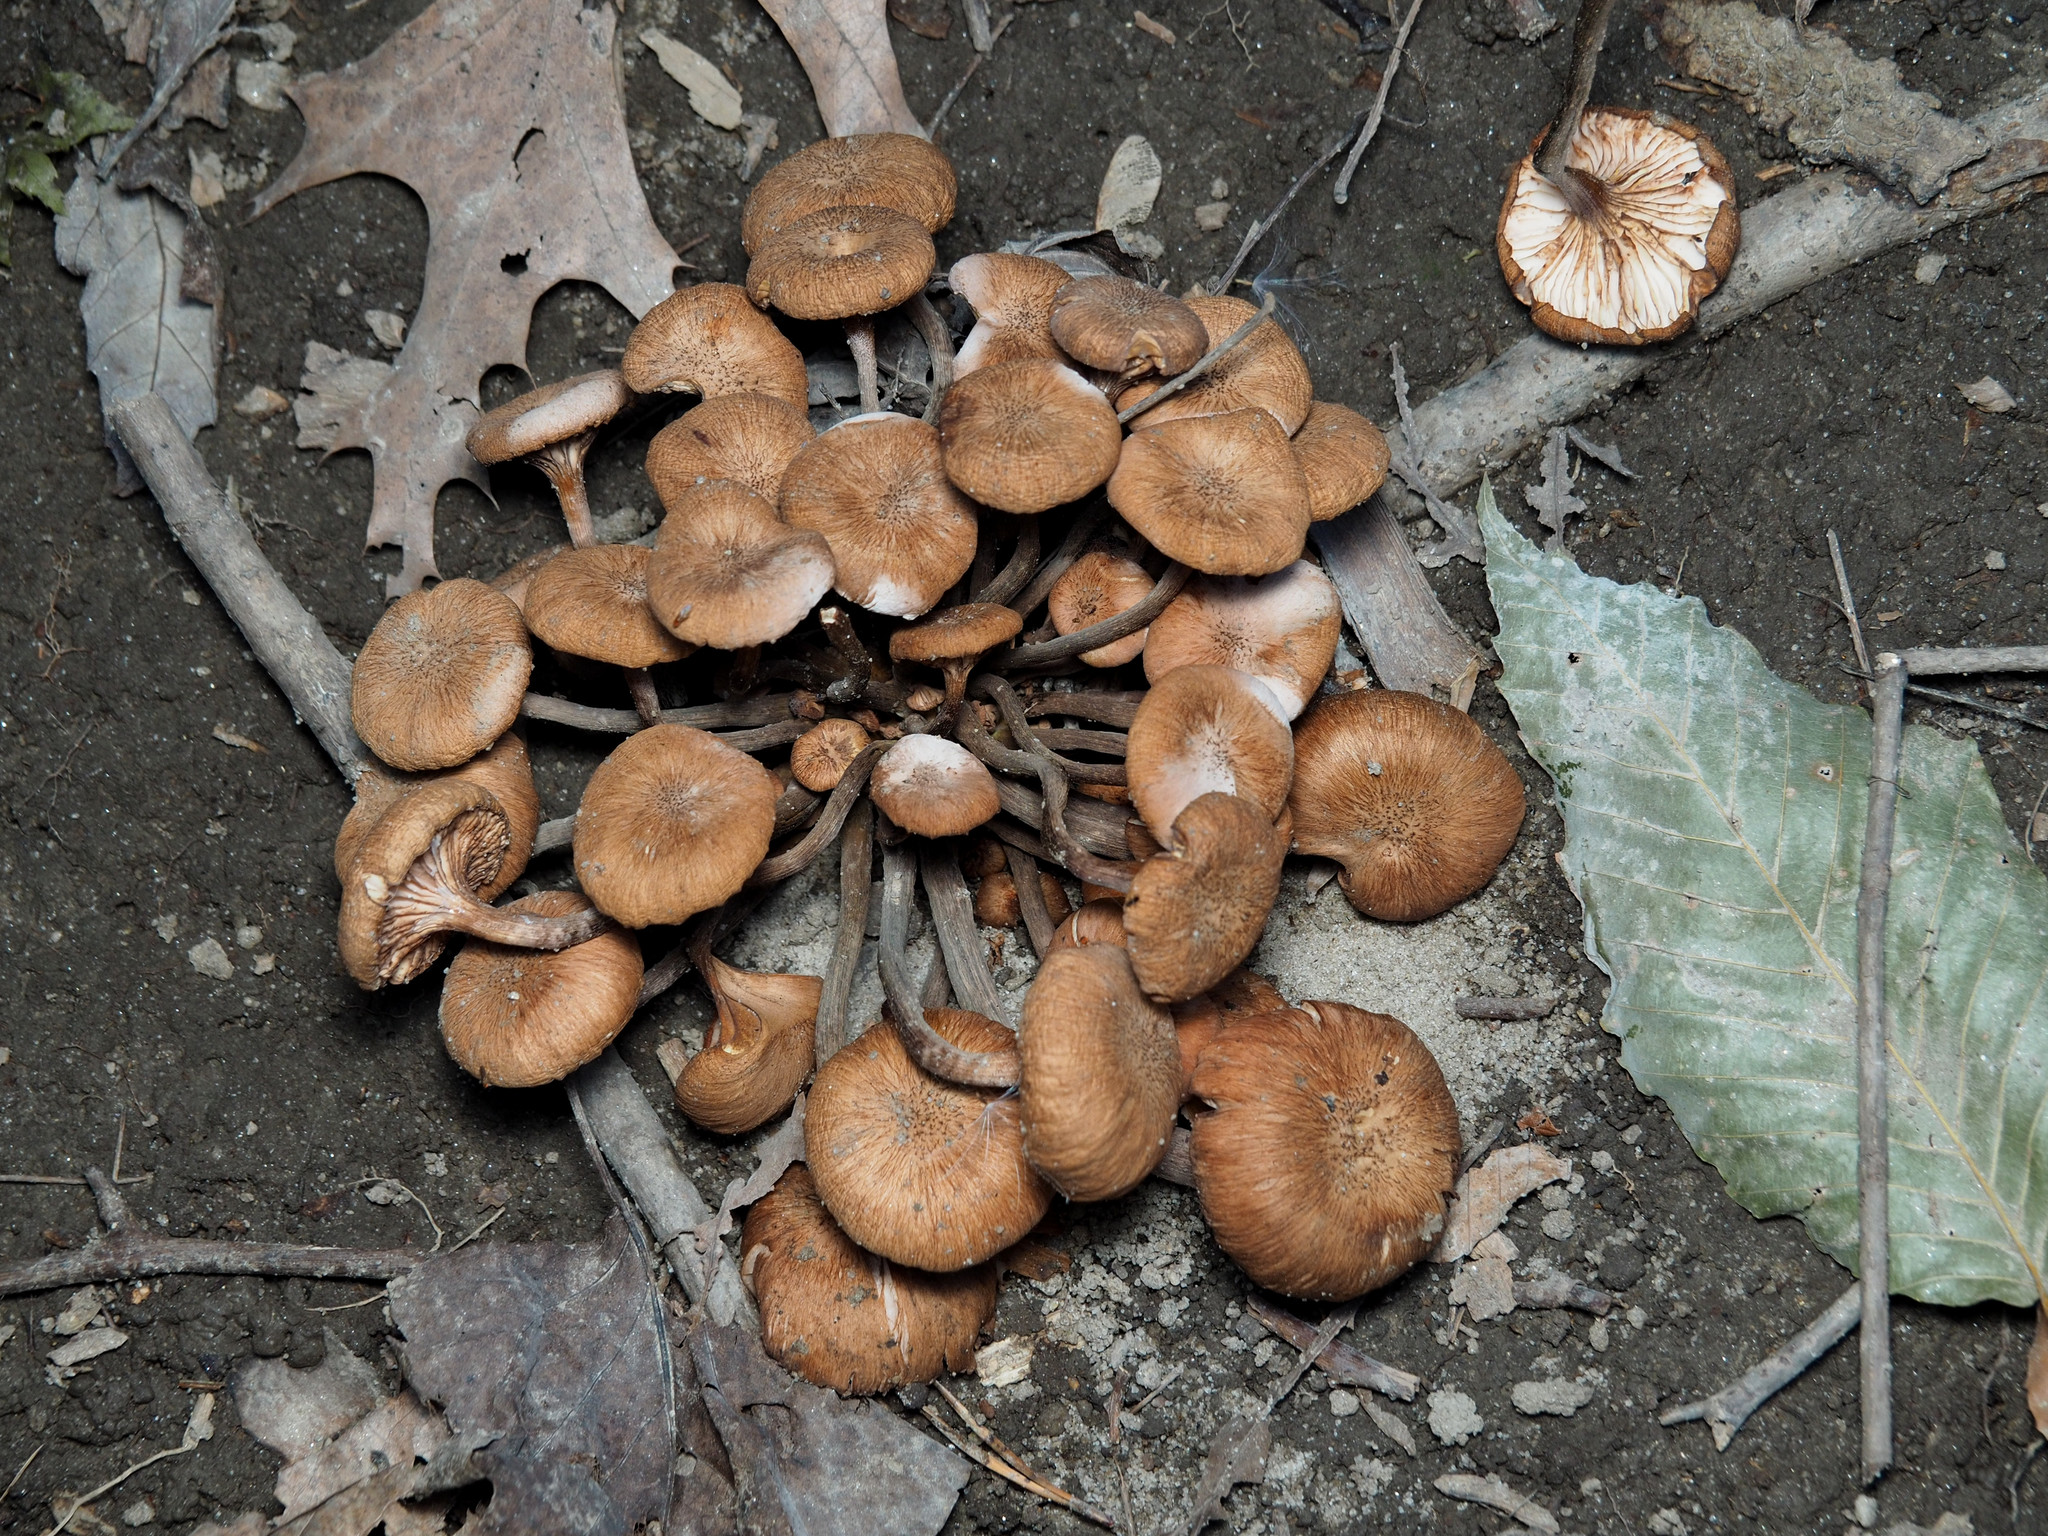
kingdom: Fungi
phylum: Basidiomycota
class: Agaricomycetes
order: Agaricales
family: Physalacriaceae
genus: Desarmillaria
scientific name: Desarmillaria caespitosa
